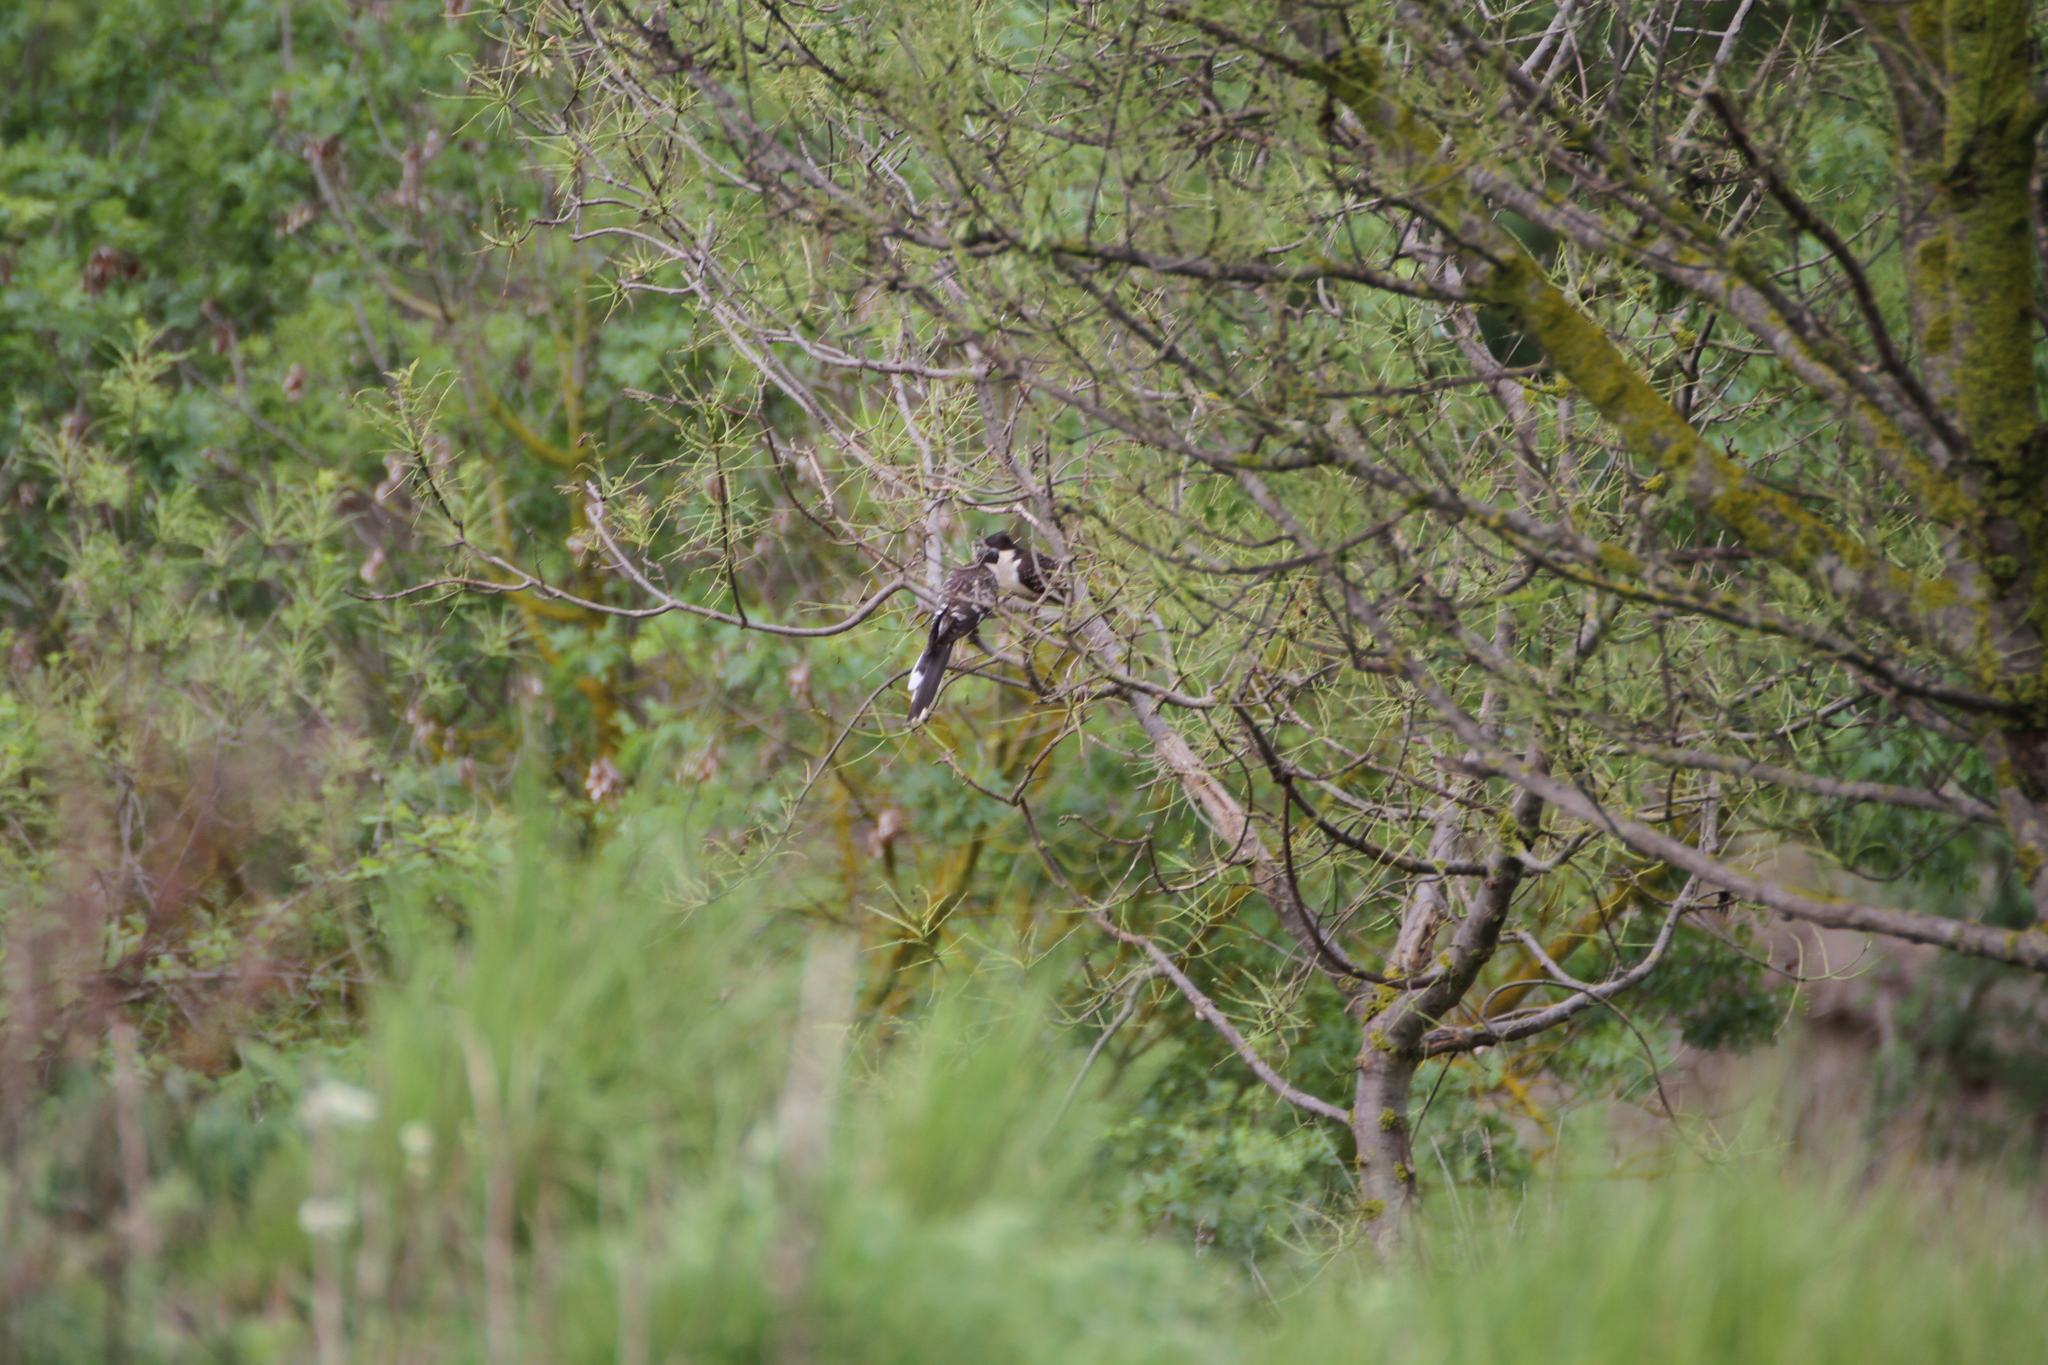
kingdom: Animalia
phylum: Chordata
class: Aves
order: Cuculiformes
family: Cuculidae
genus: Clamator
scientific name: Clamator glandarius
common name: Great spotted cuckoo
